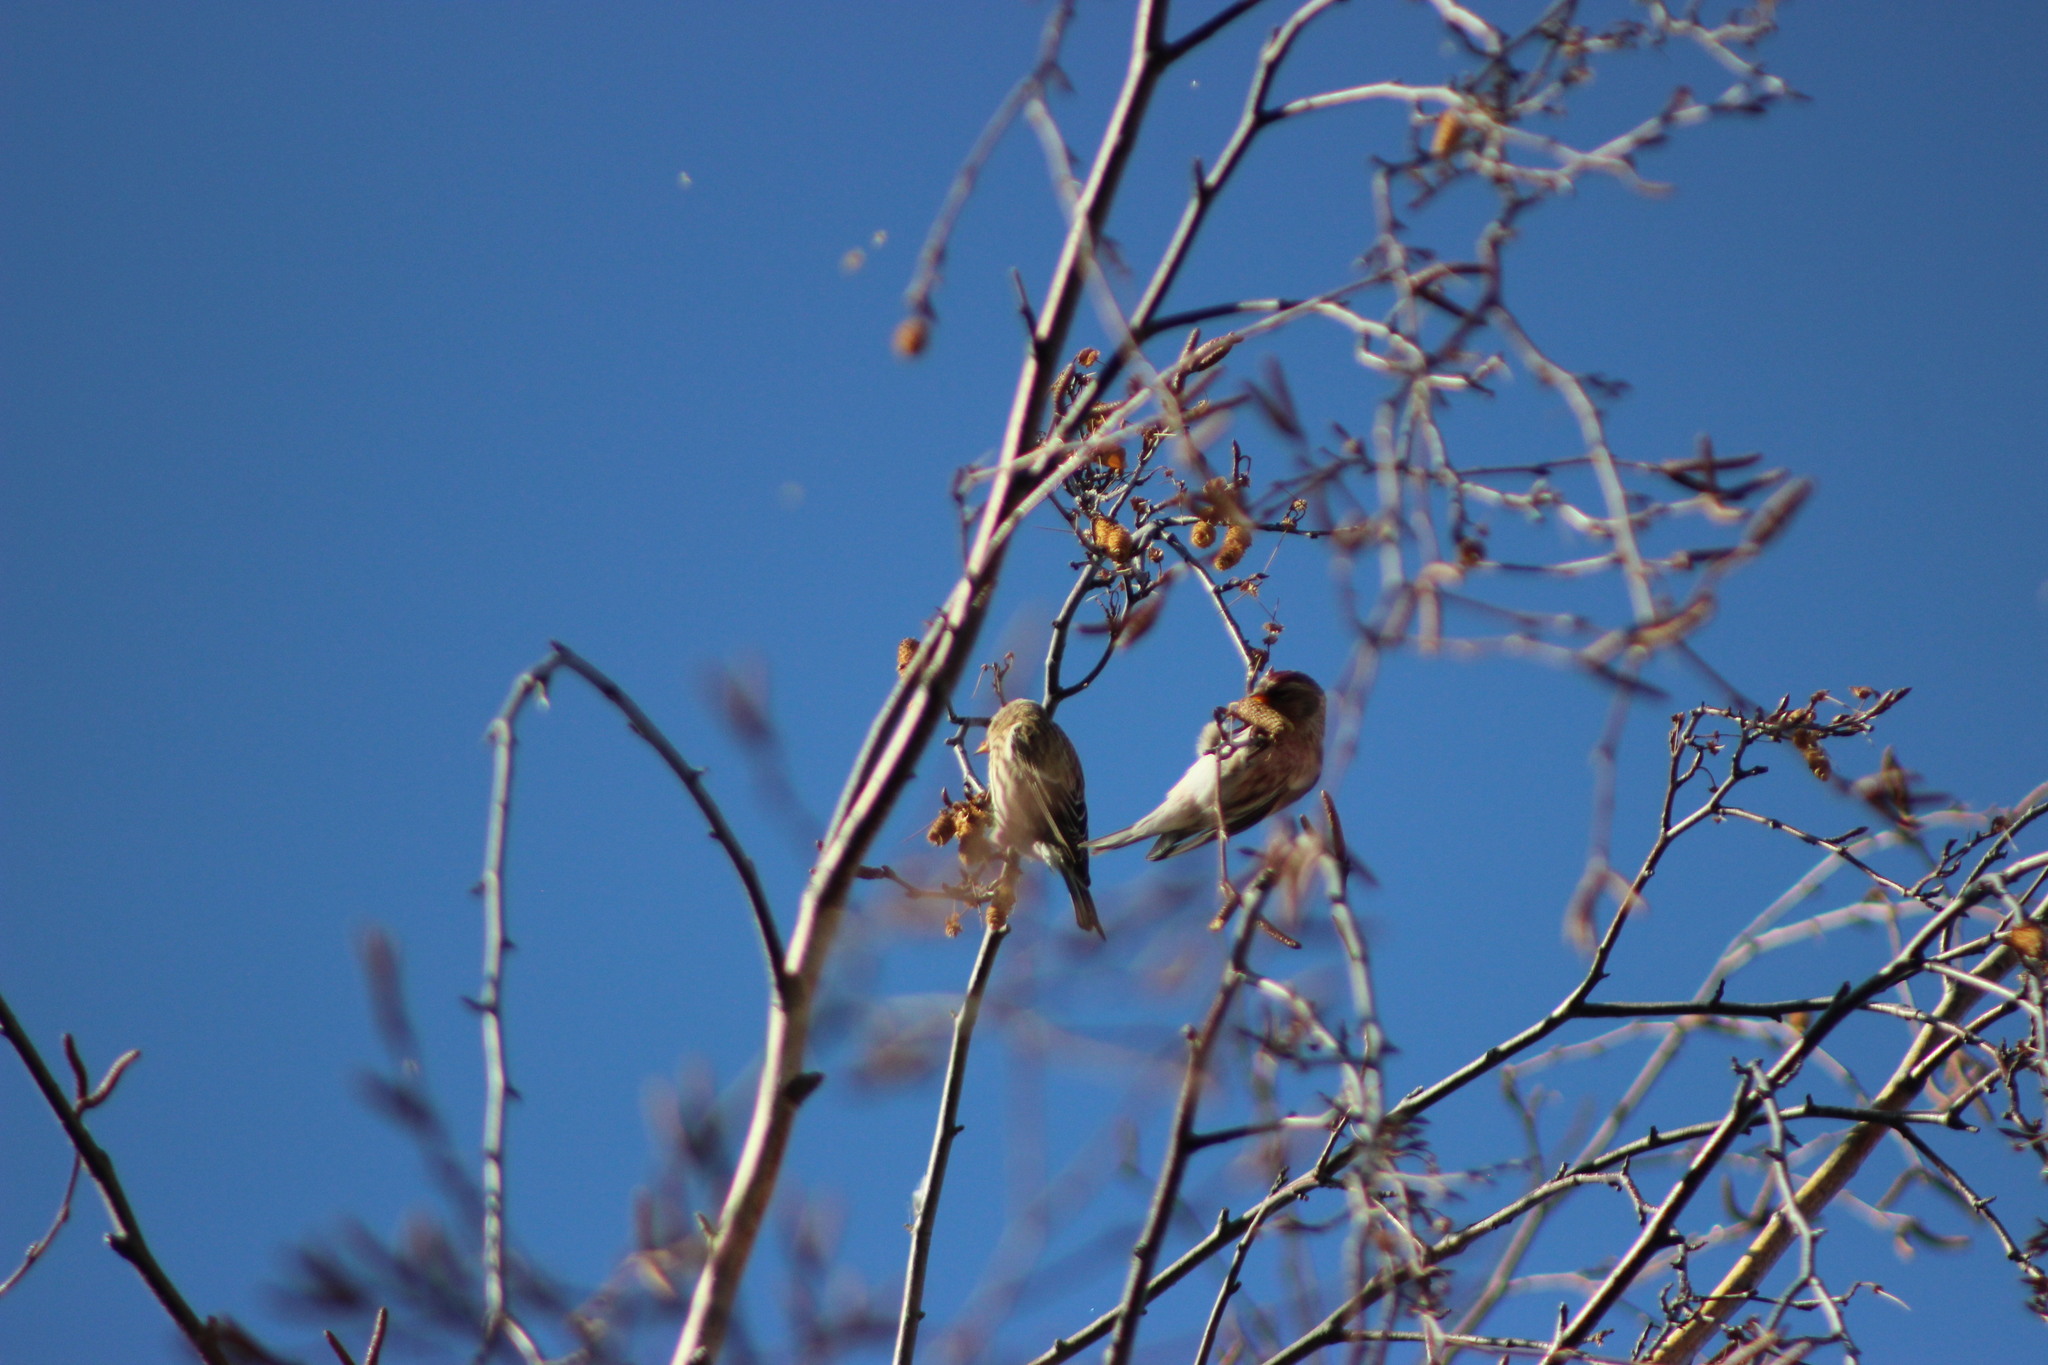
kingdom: Animalia
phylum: Chordata
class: Aves
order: Passeriformes
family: Fringillidae
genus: Acanthis
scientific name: Acanthis flammea
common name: Common redpoll
